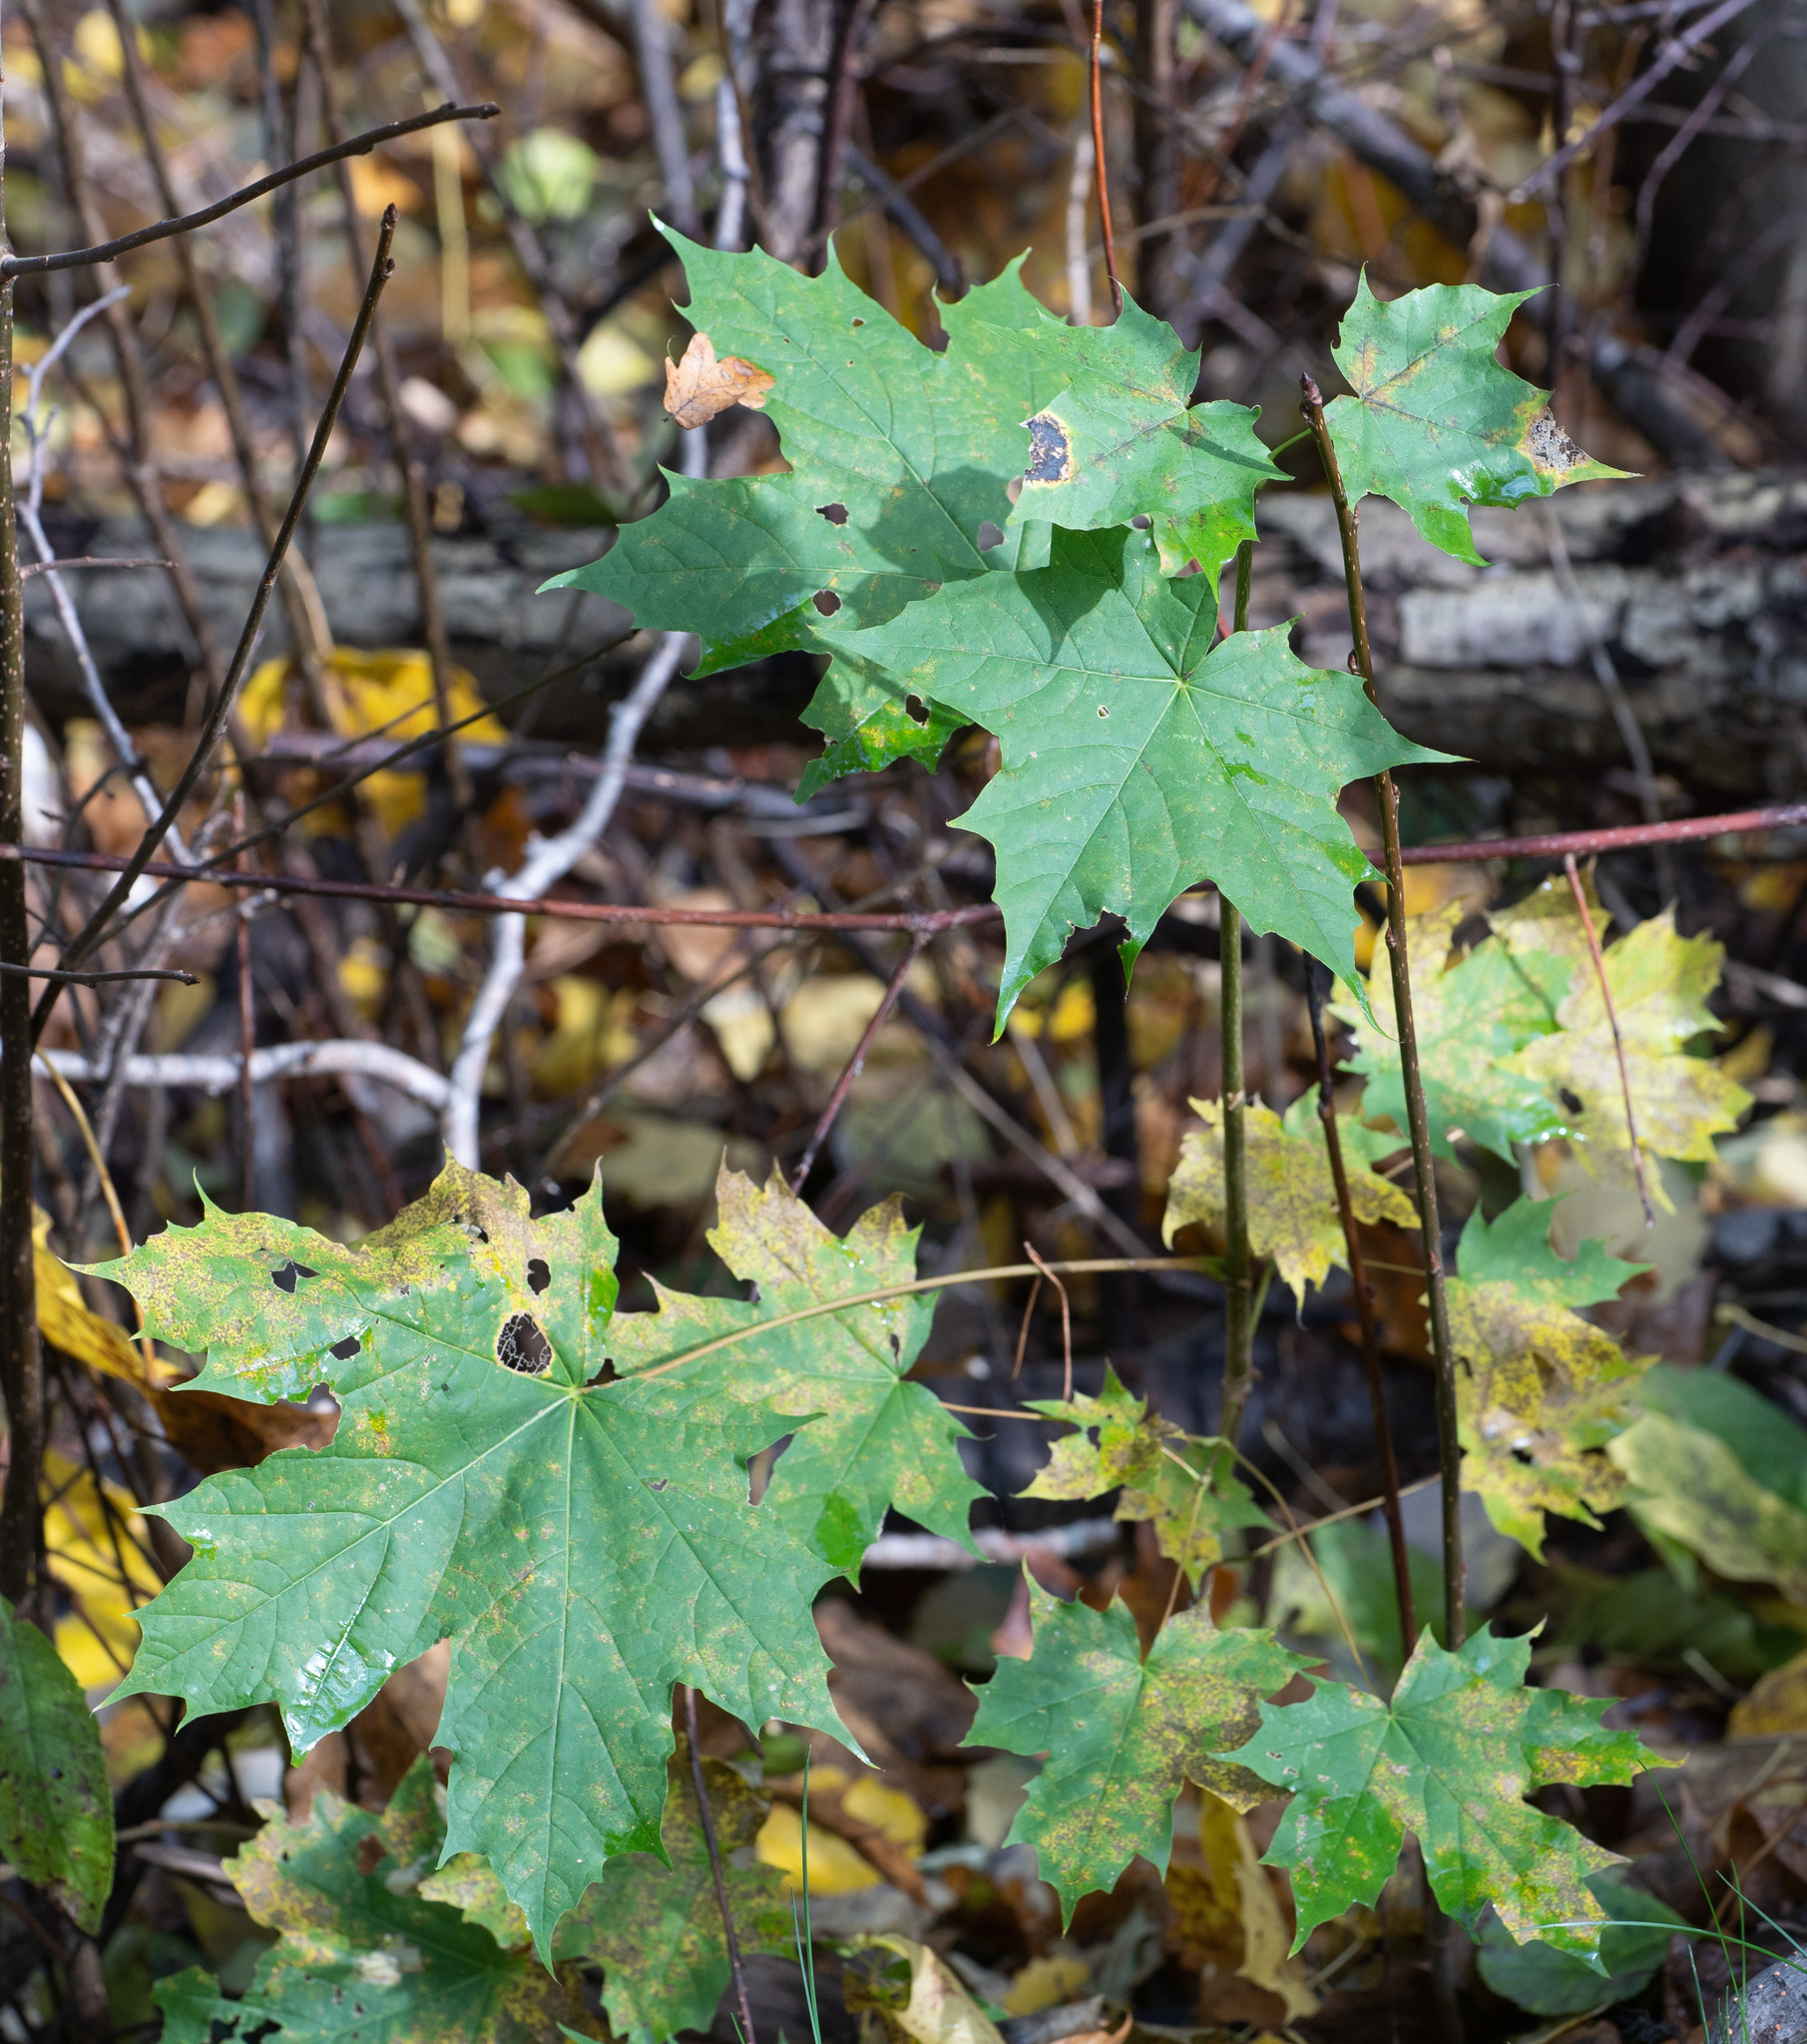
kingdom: Plantae
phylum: Tracheophyta
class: Magnoliopsida
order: Sapindales
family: Sapindaceae
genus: Acer
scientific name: Acer platanoides
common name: Norway maple
